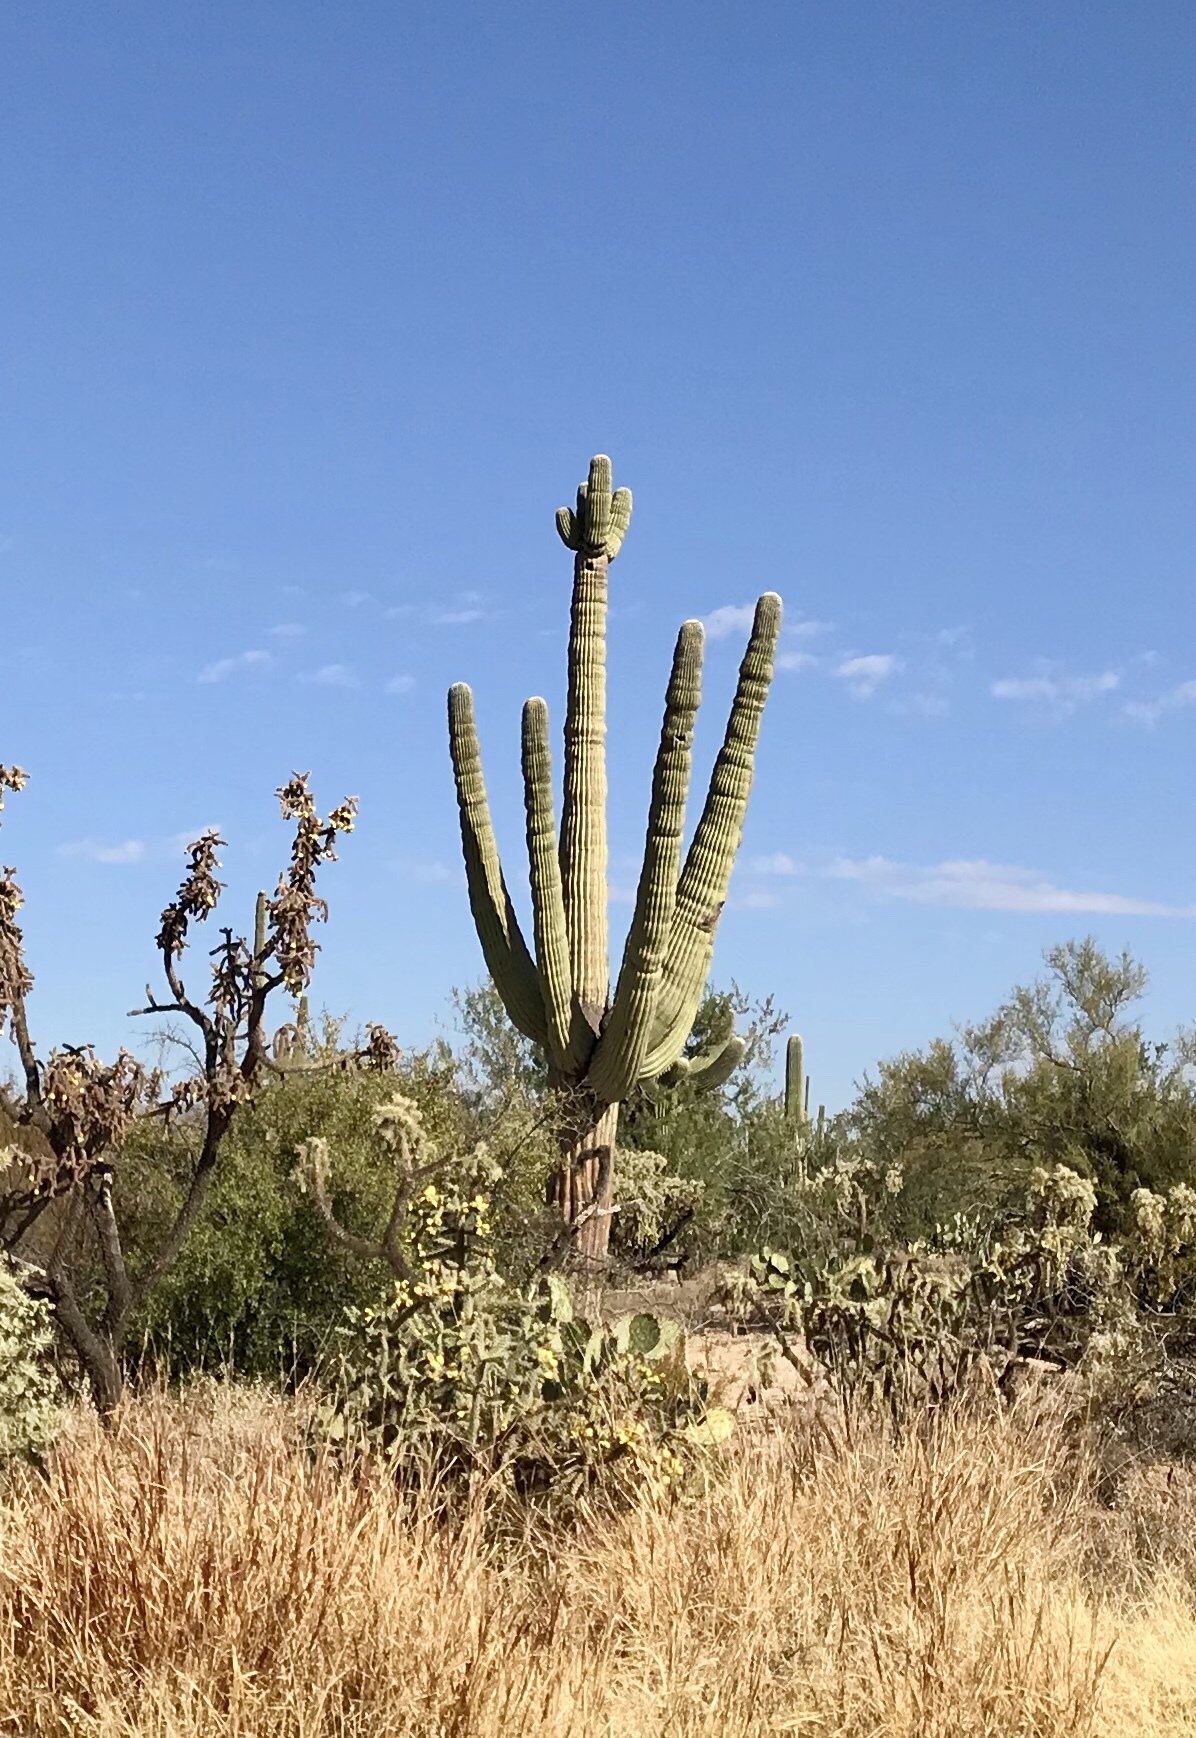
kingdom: Plantae
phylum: Tracheophyta
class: Magnoliopsida
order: Caryophyllales
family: Cactaceae
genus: Carnegiea
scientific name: Carnegiea gigantea
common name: Saguaro
